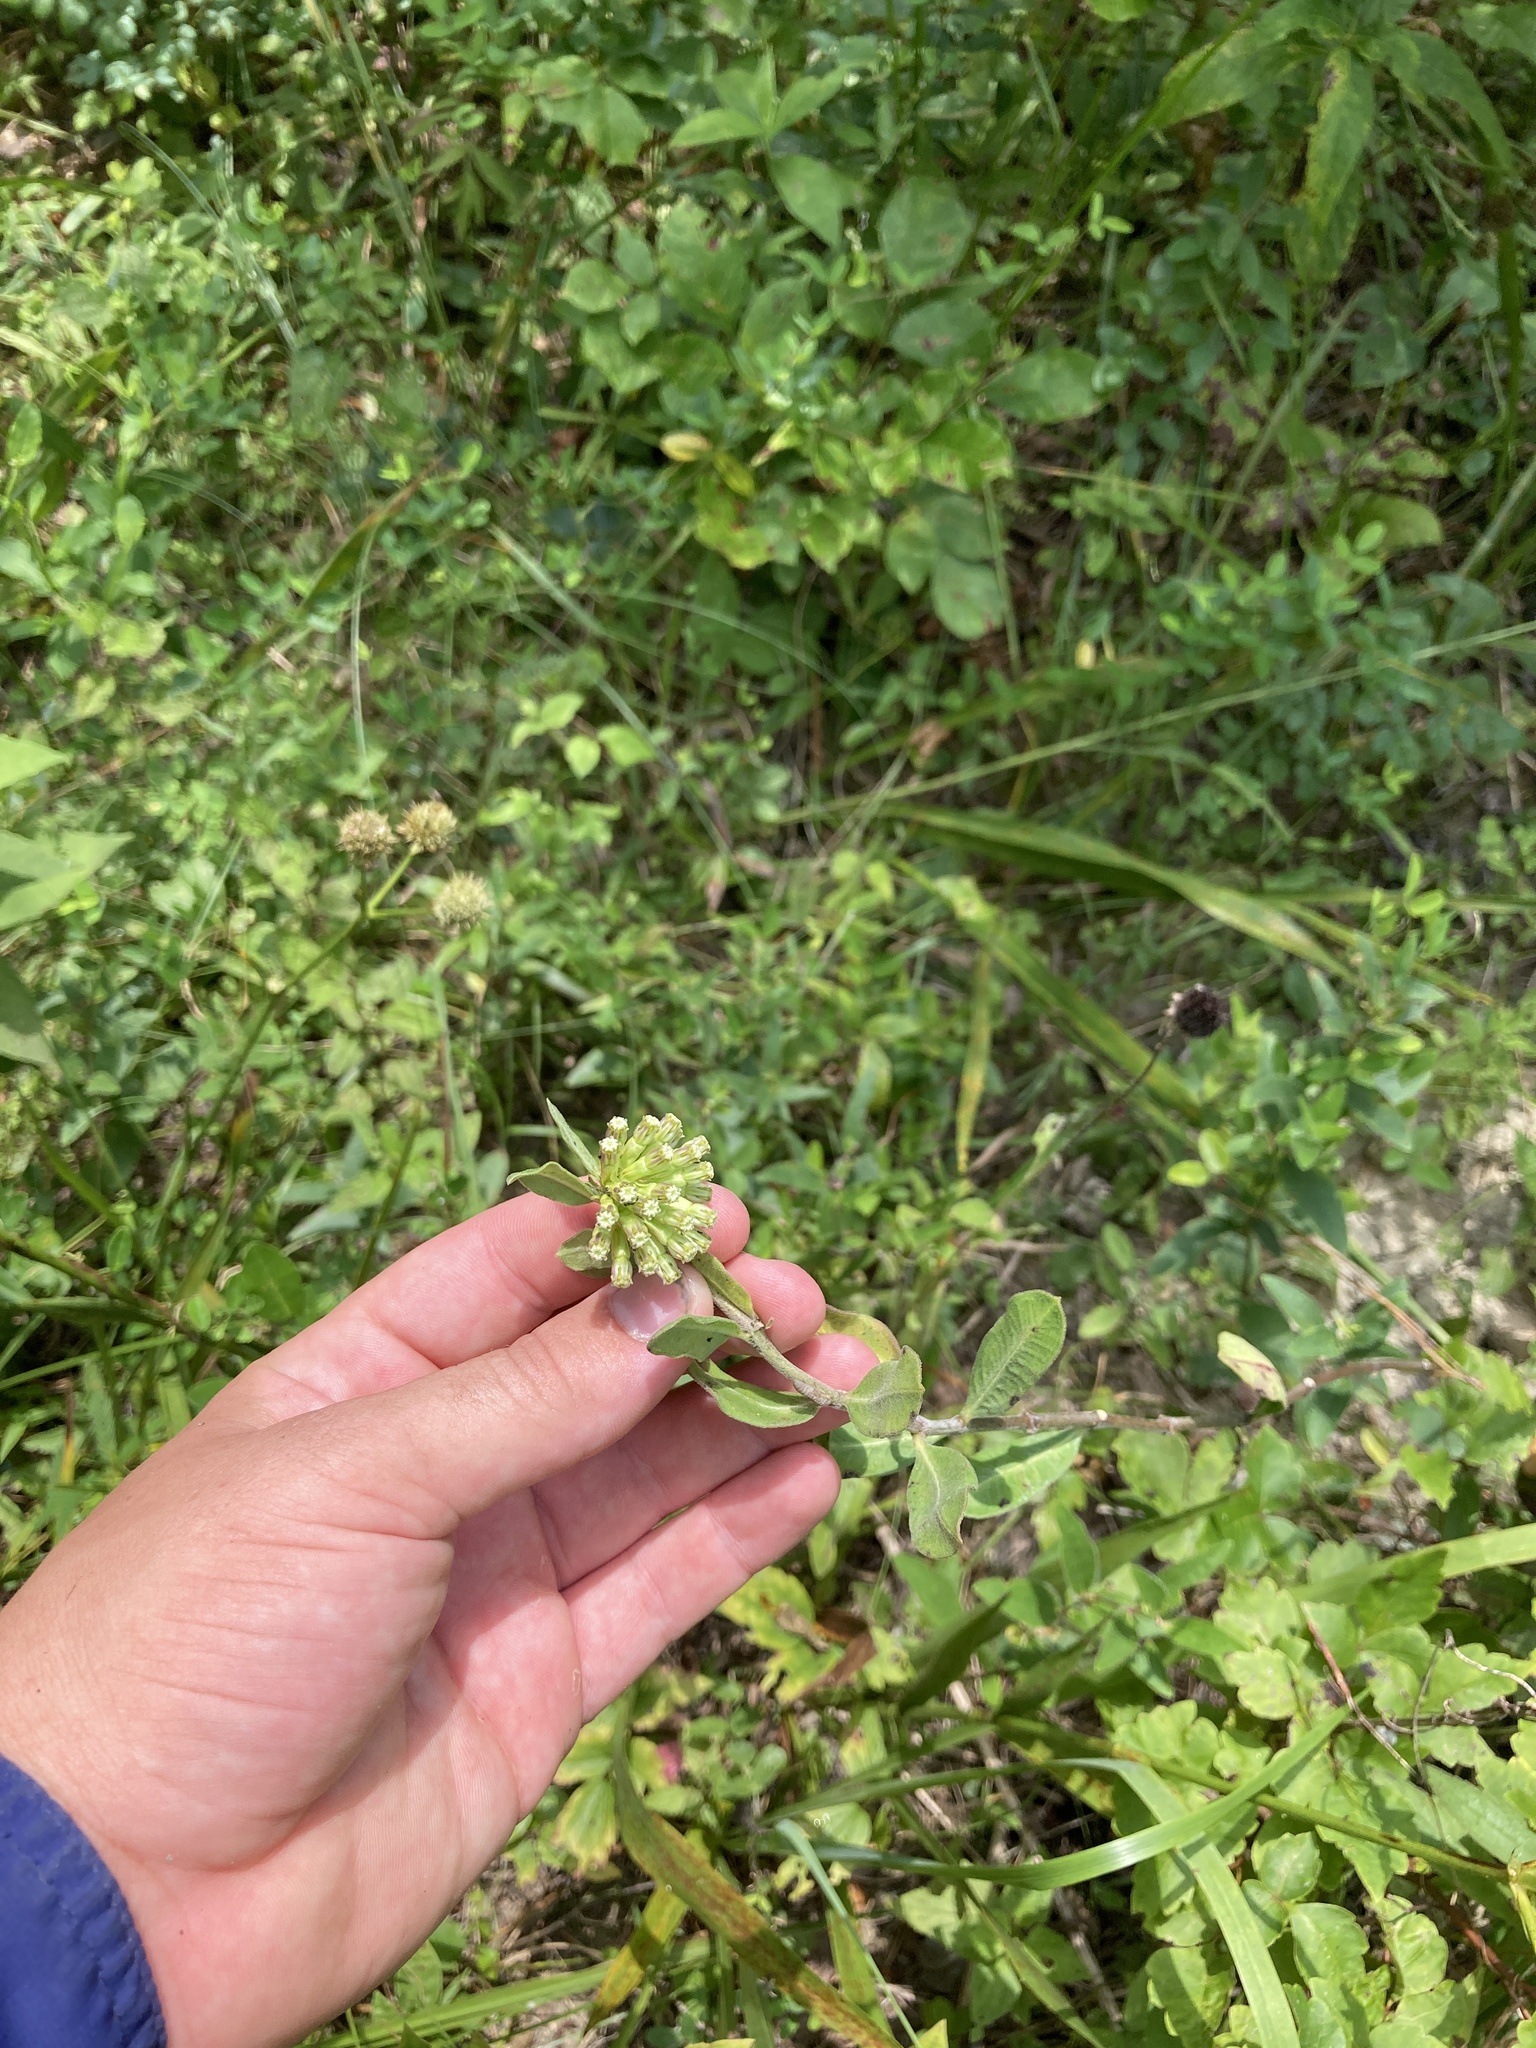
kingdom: Plantae
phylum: Tracheophyta
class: Magnoliopsida
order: Gentianales
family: Apocynaceae
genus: Asclepias
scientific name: Asclepias viridiflora
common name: Green comet milkweed
